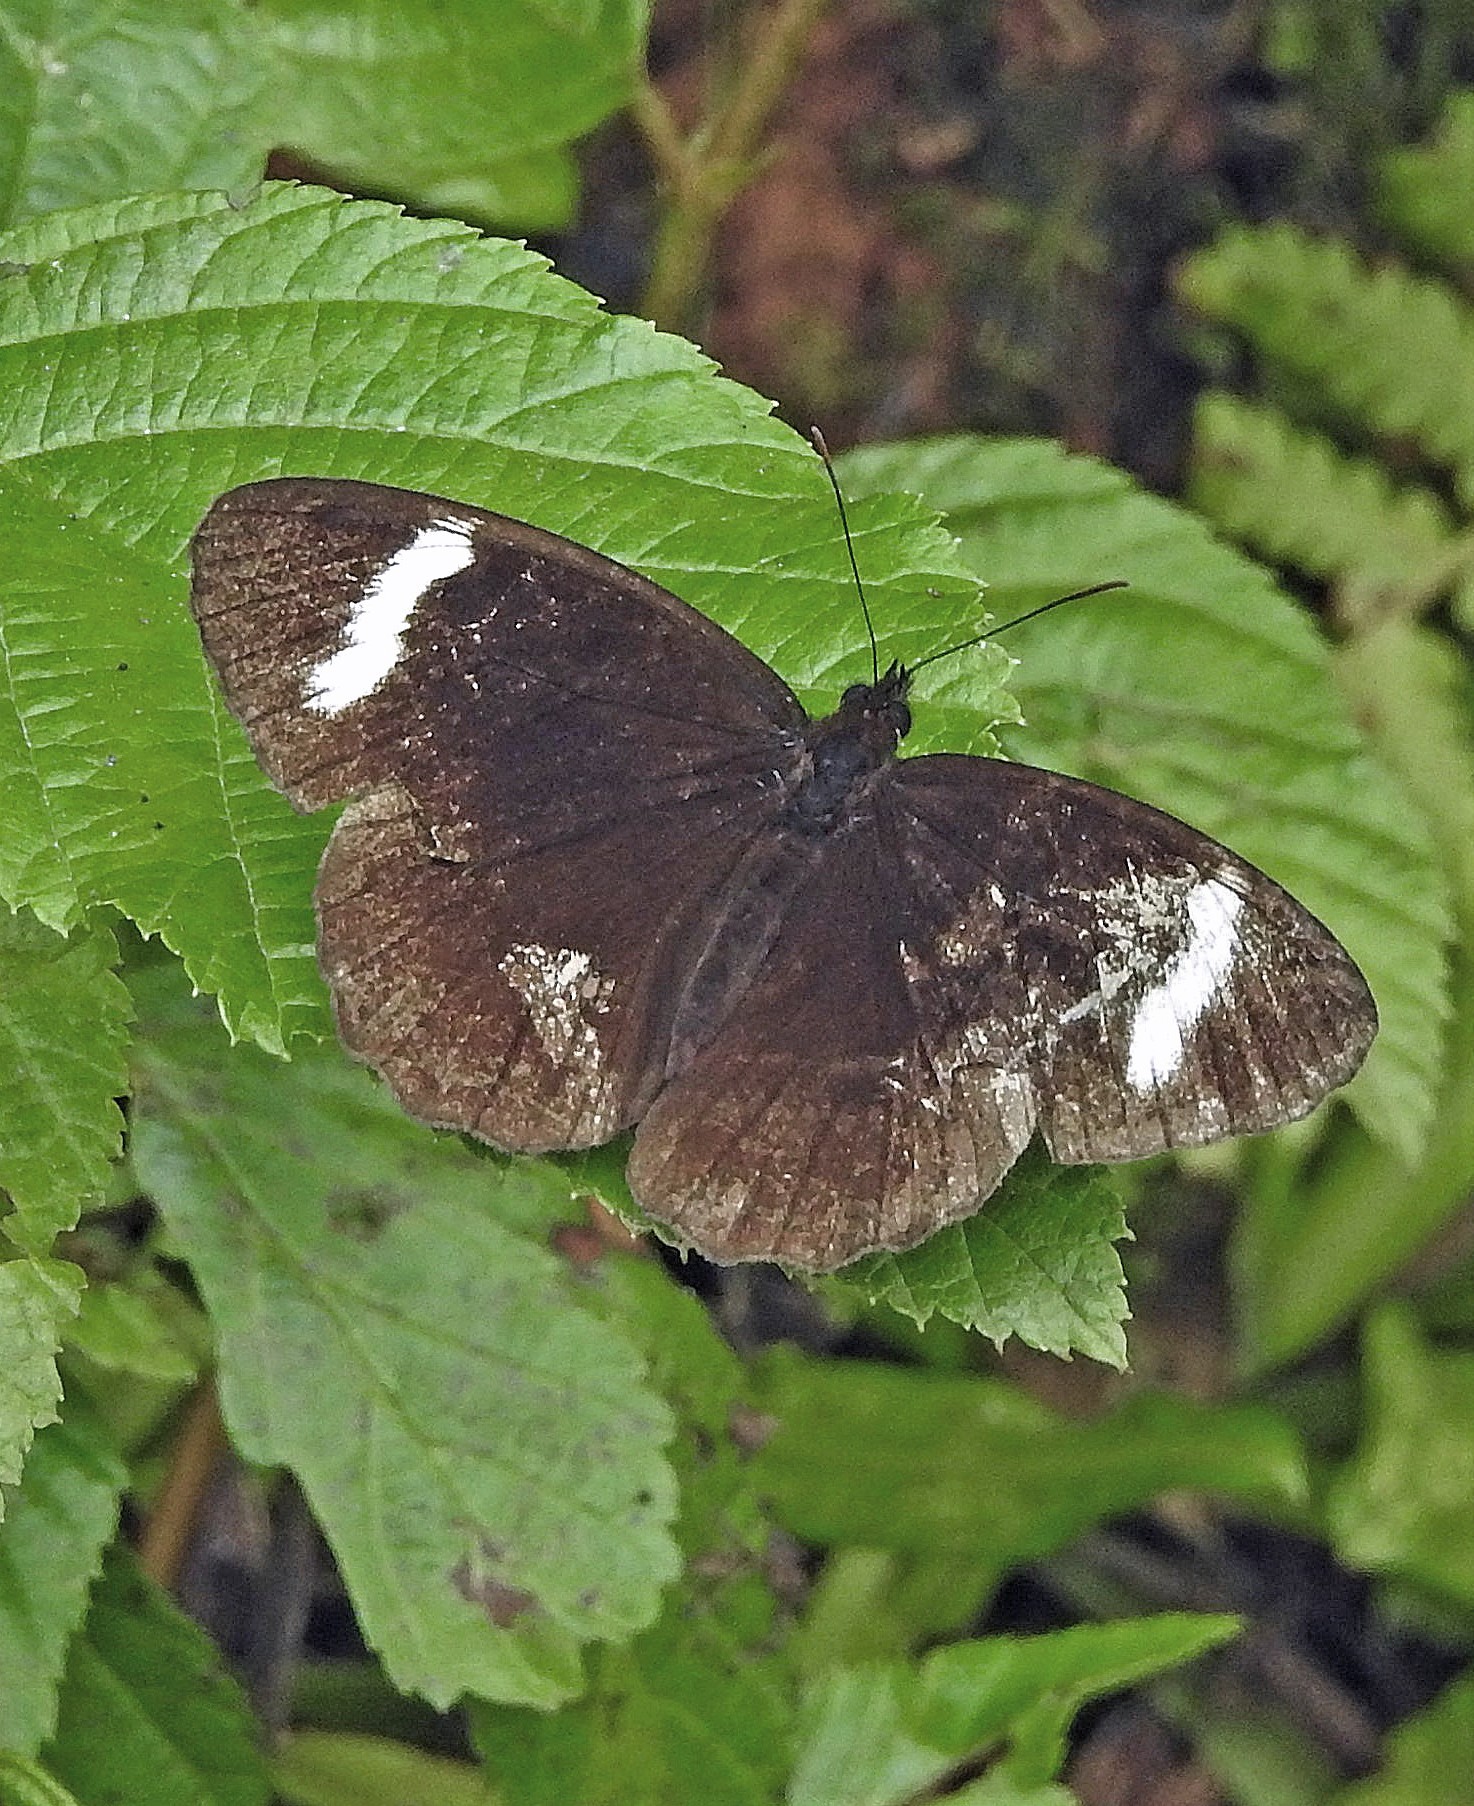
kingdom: Animalia
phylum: Arthropoda
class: Insecta
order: Lepidoptera
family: Nymphalidae
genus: Pedaliodes
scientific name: Pedaliodes porina
